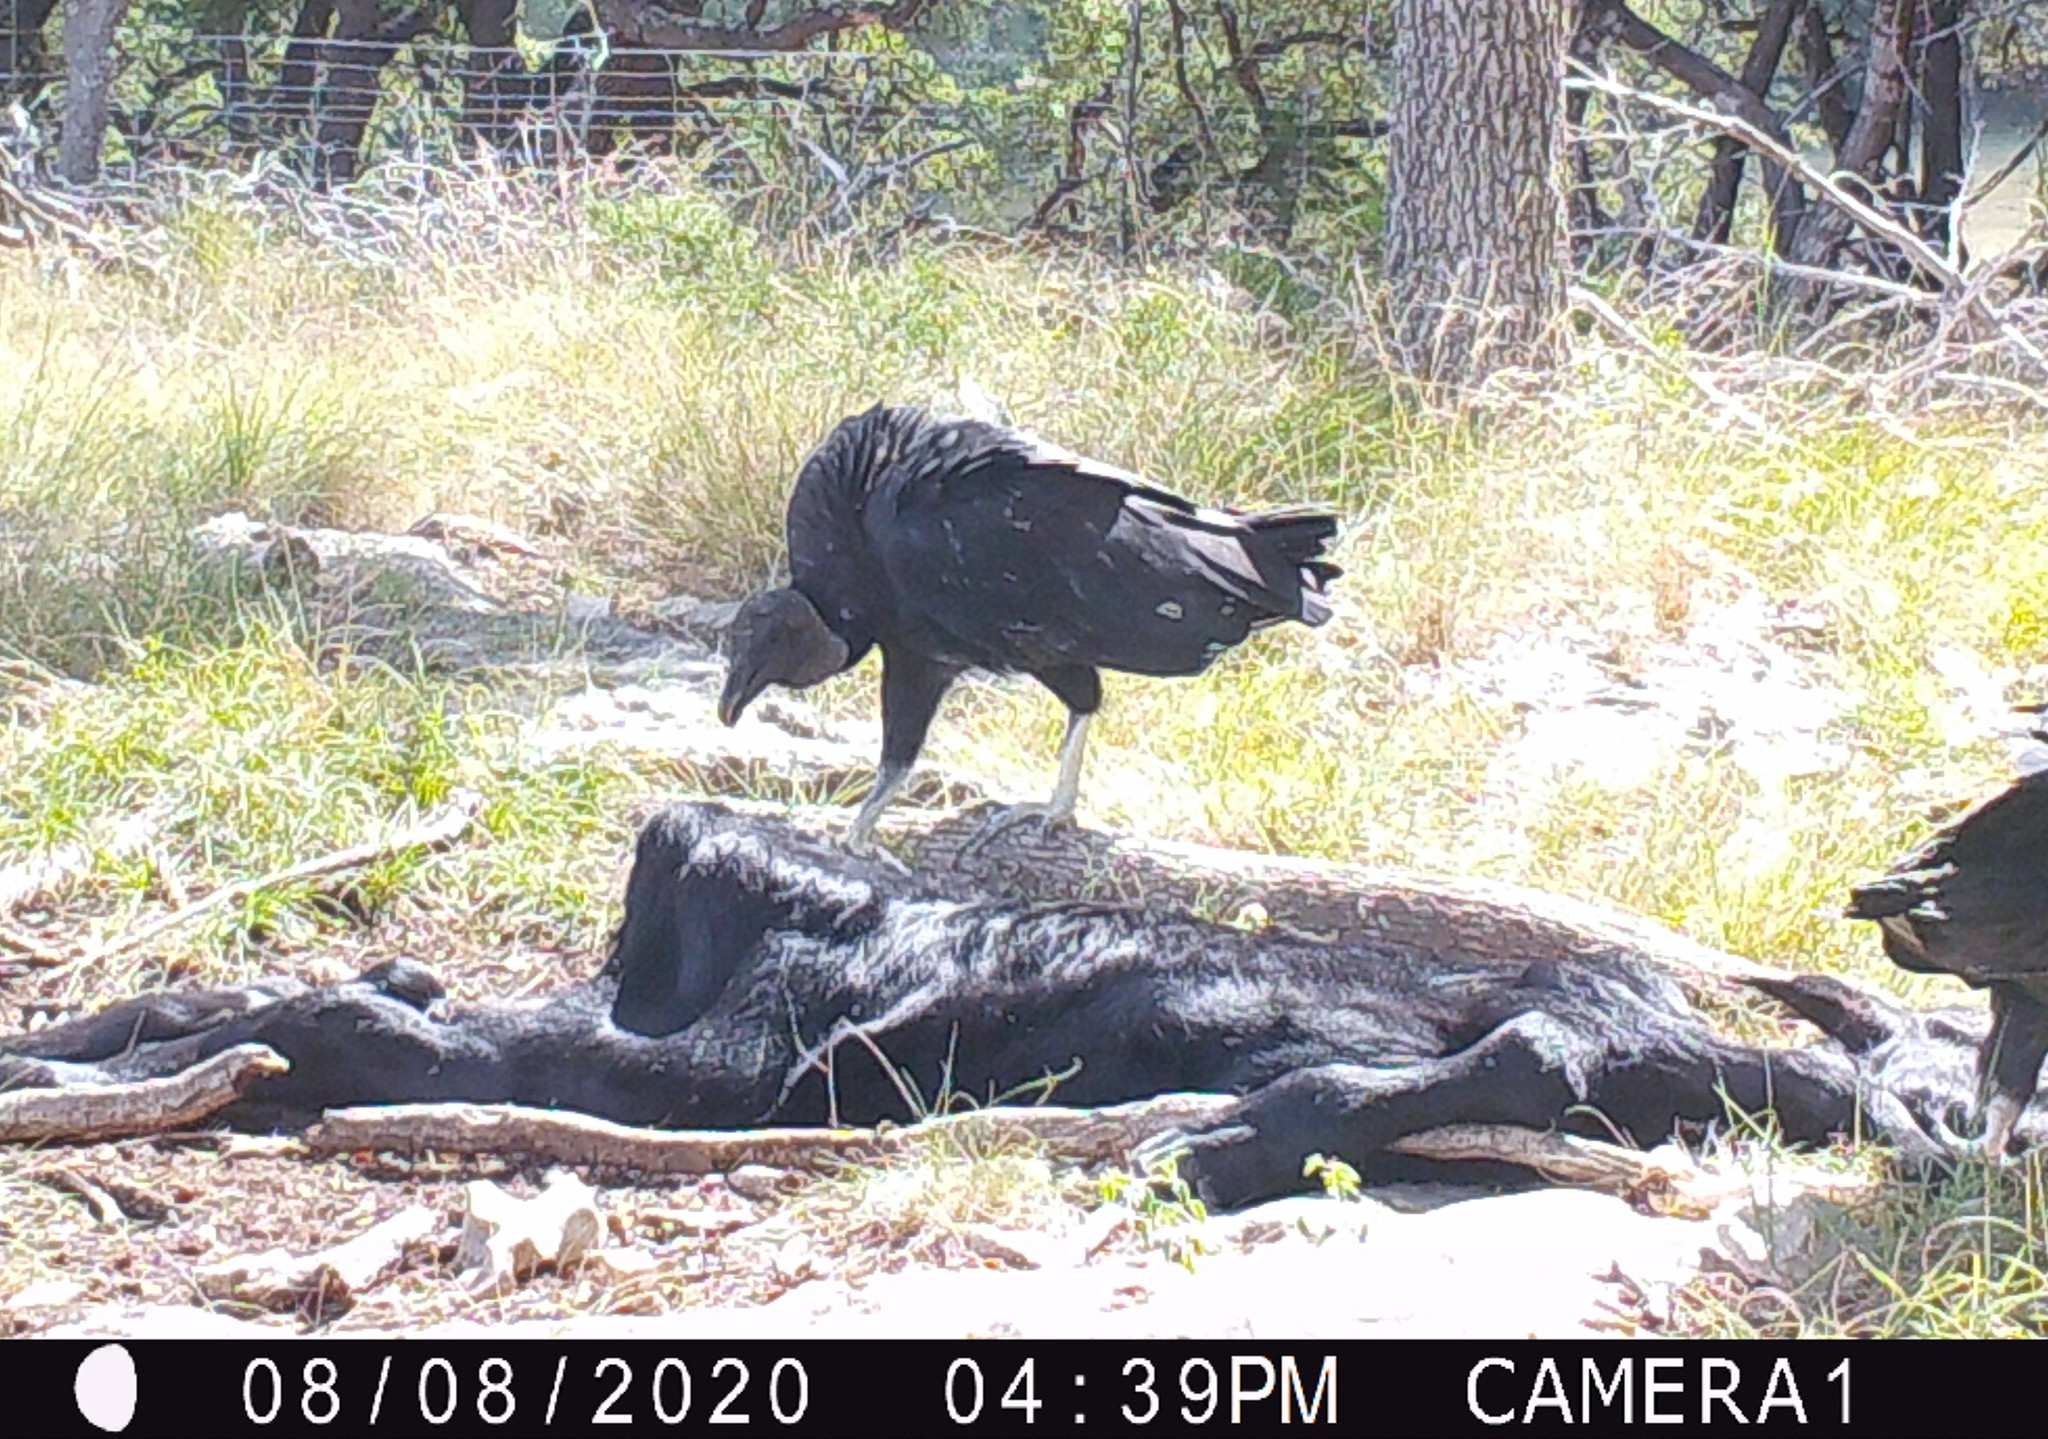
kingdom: Animalia
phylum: Chordata
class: Aves
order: Accipitriformes
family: Cathartidae
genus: Coragyps
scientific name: Coragyps atratus
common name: Black vulture
